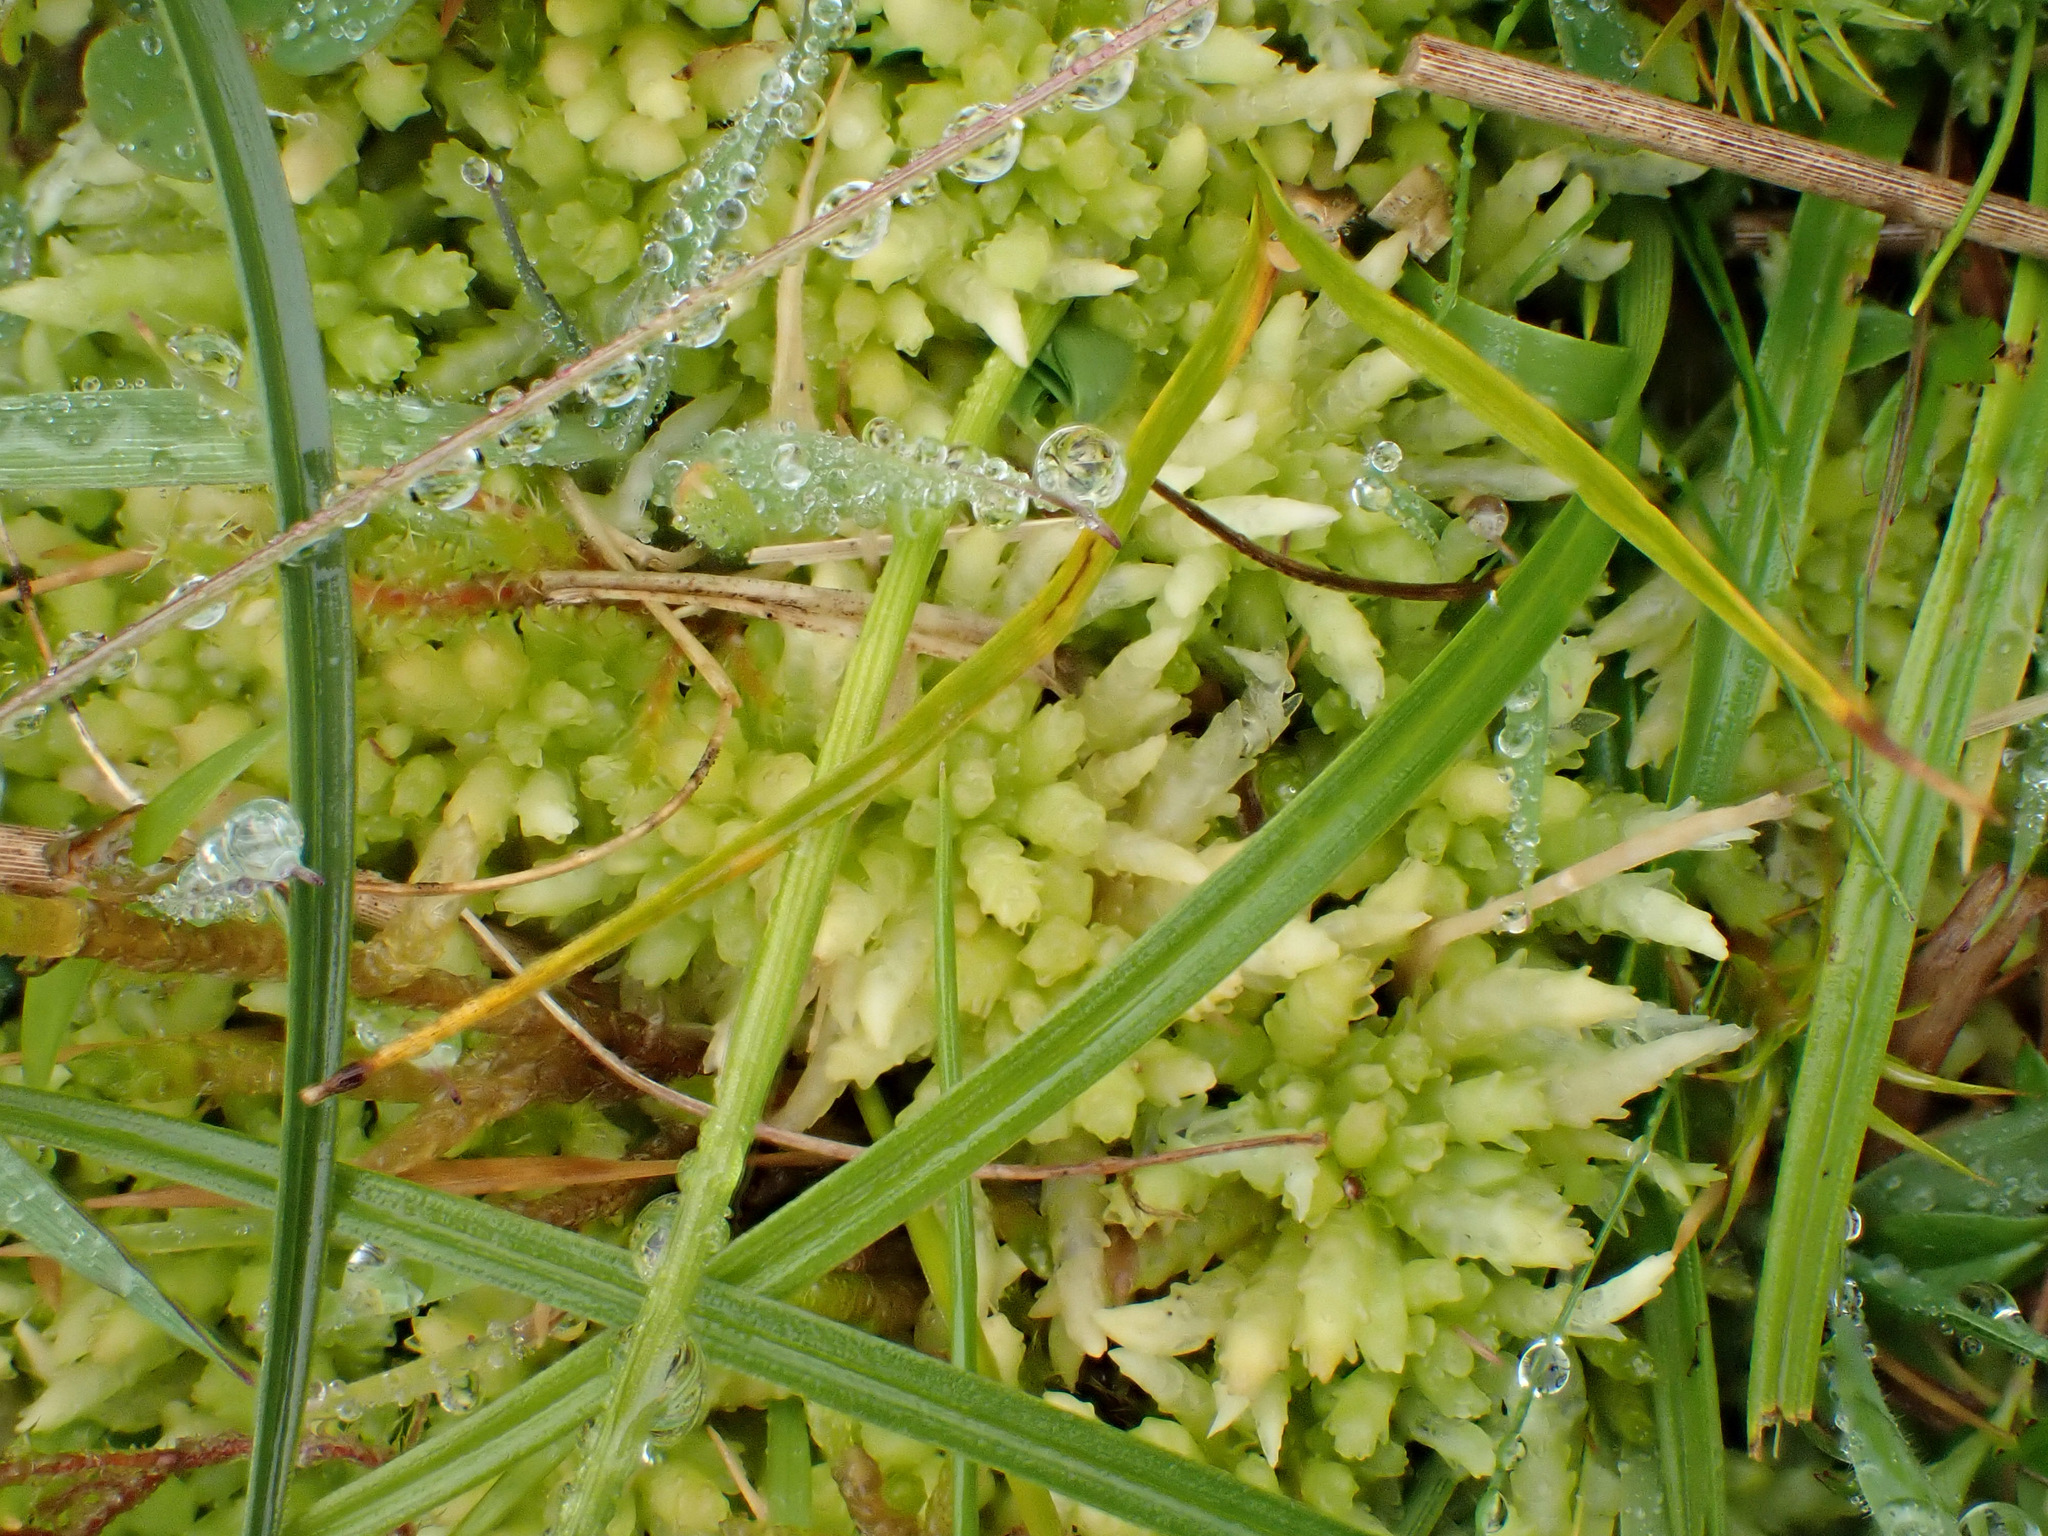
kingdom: Plantae
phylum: Bryophyta
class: Sphagnopsida
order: Sphagnales
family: Sphagnaceae
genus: Sphagnum
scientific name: Sphagnum palustre
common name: Blunt-leaved bog-moss
